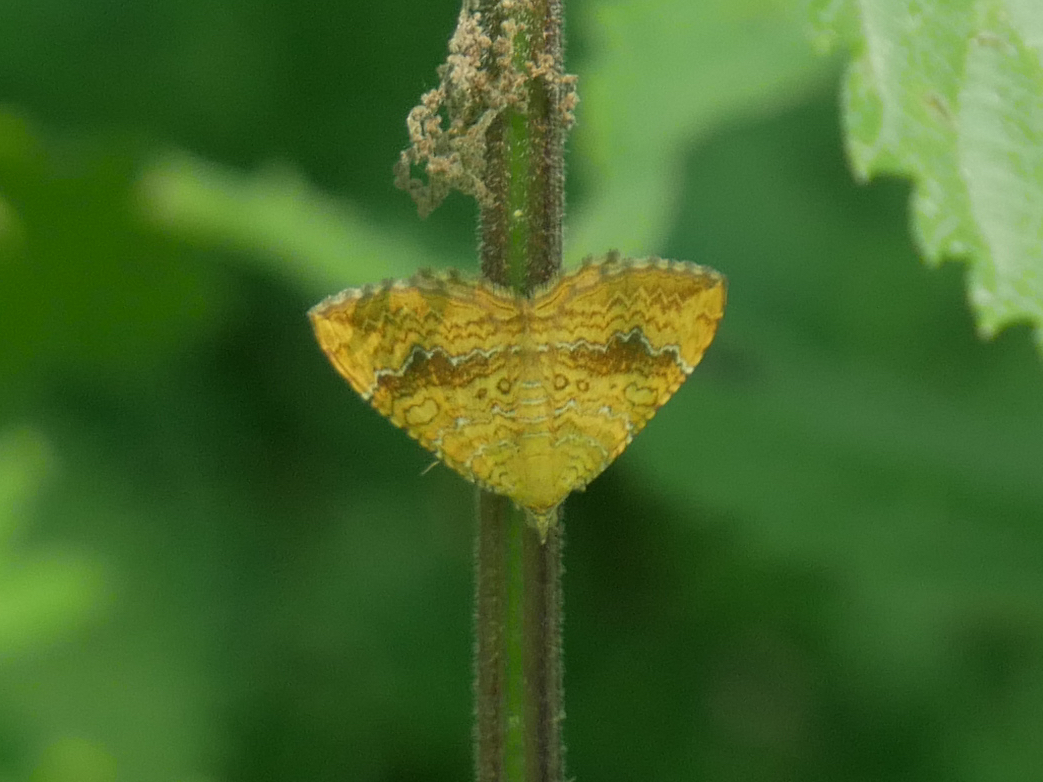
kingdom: Animalia
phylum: Arthropoda
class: Insecta
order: Lepidoptera
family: Geometridae
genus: Camptogramma
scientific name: Camptogramma bilineata
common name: Yellow shell
